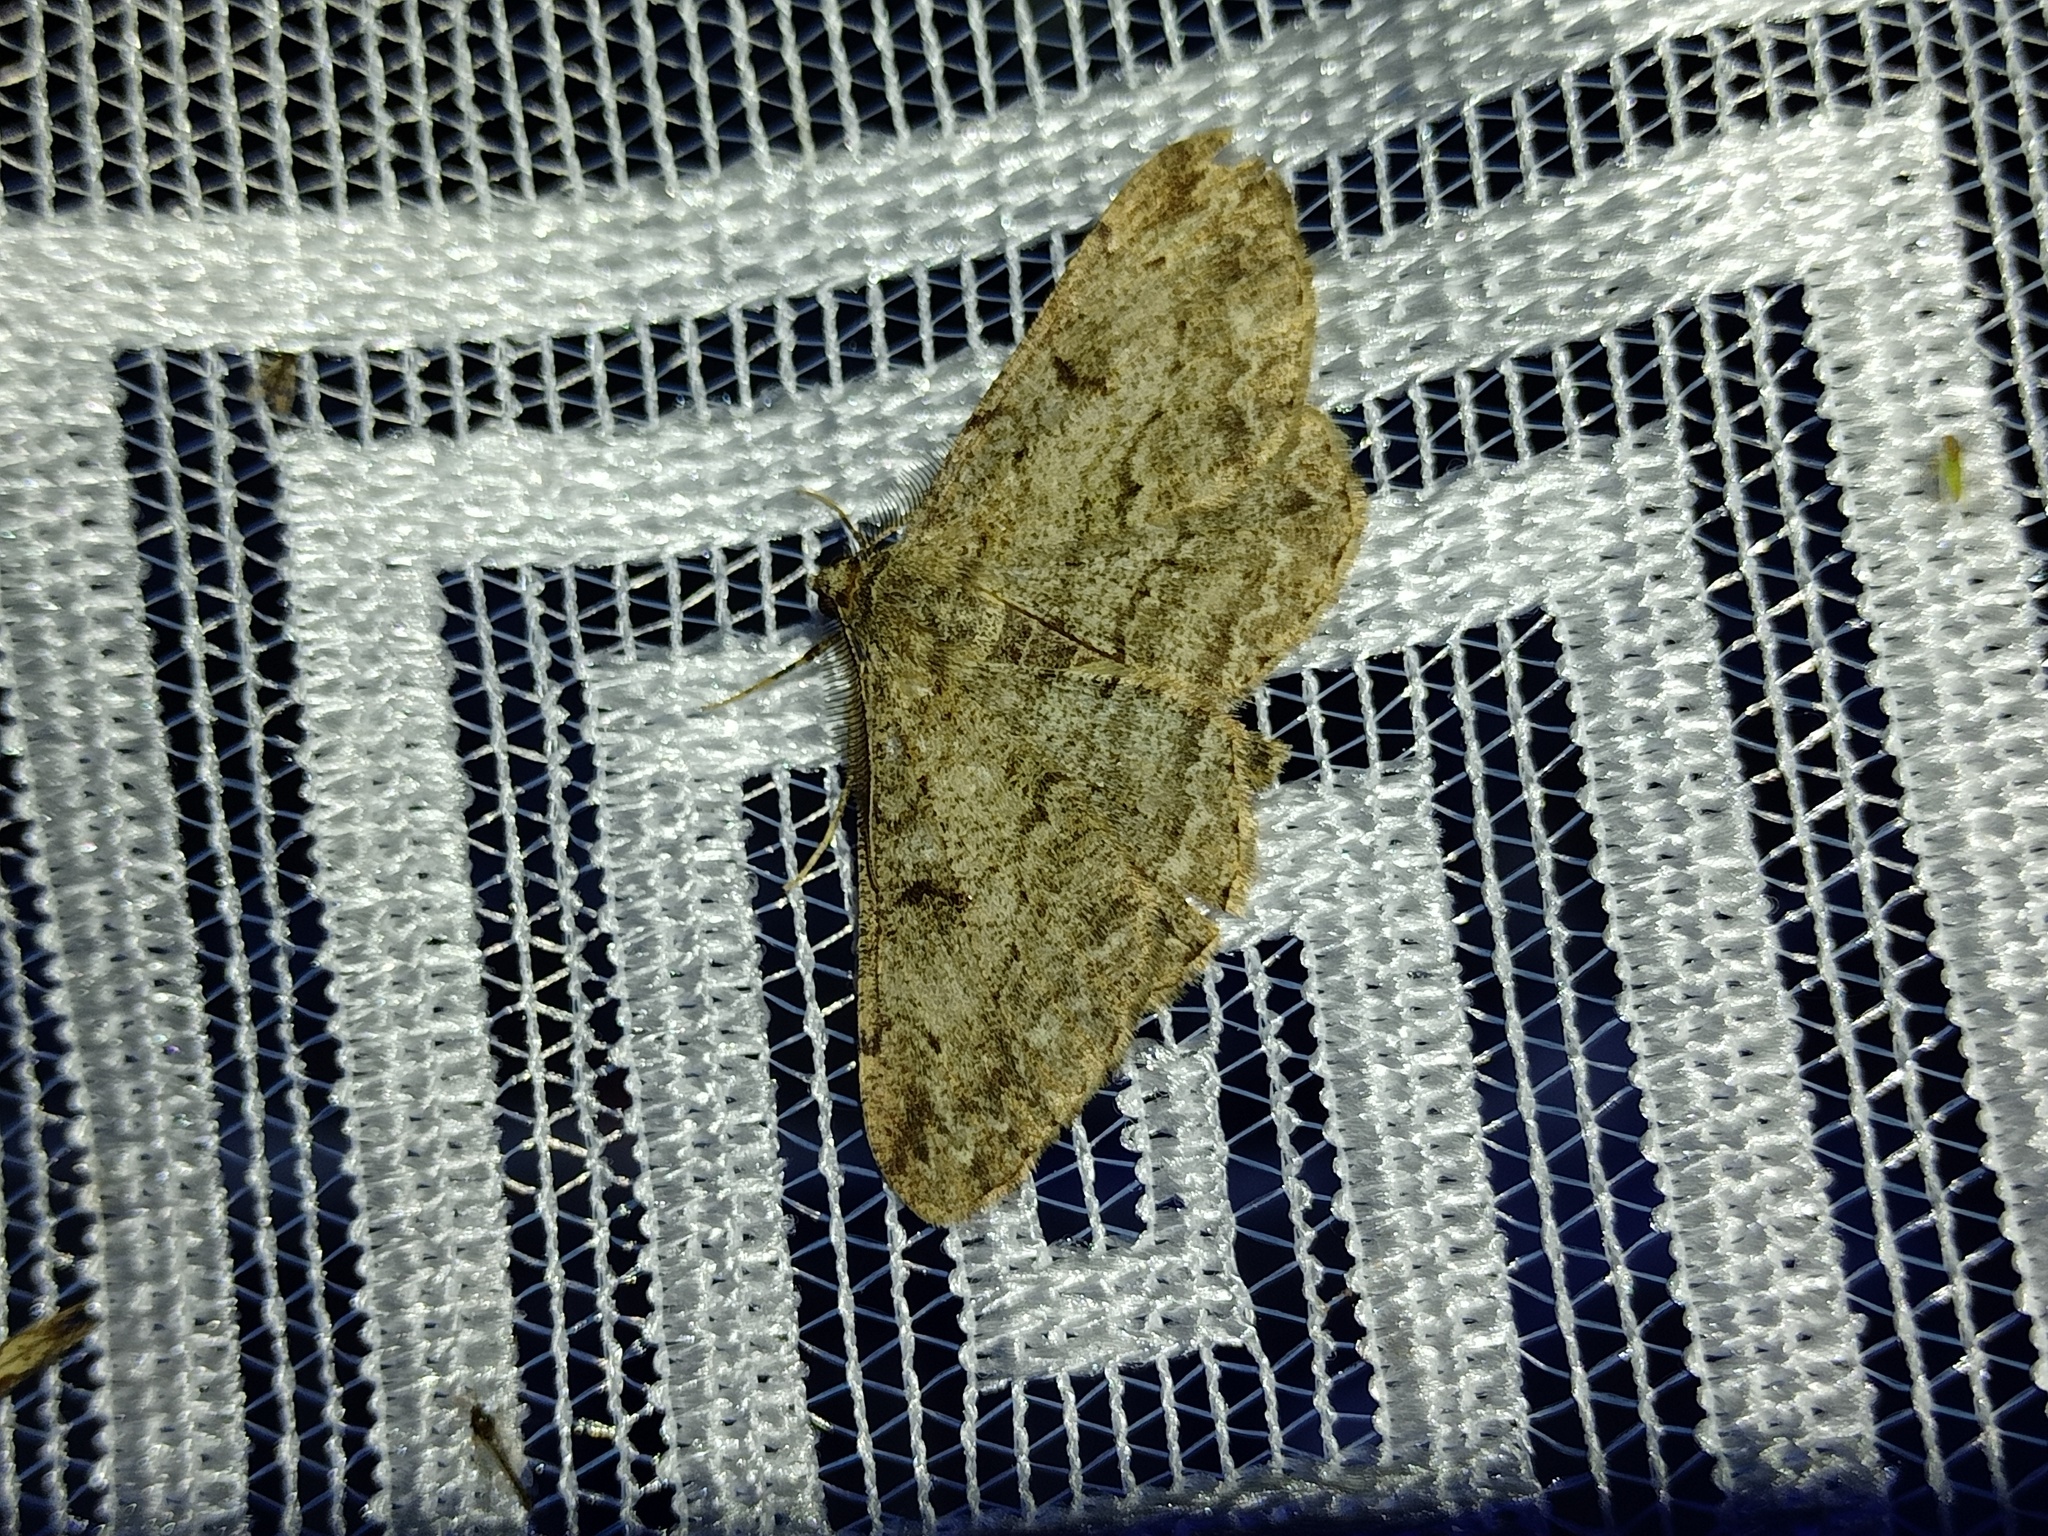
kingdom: Animalia
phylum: Arthropoda
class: Insecta
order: Lepidoptera
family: Geometridae
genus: Peribatodes
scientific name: Peribatodes rhomboidaria
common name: Willow beauty
